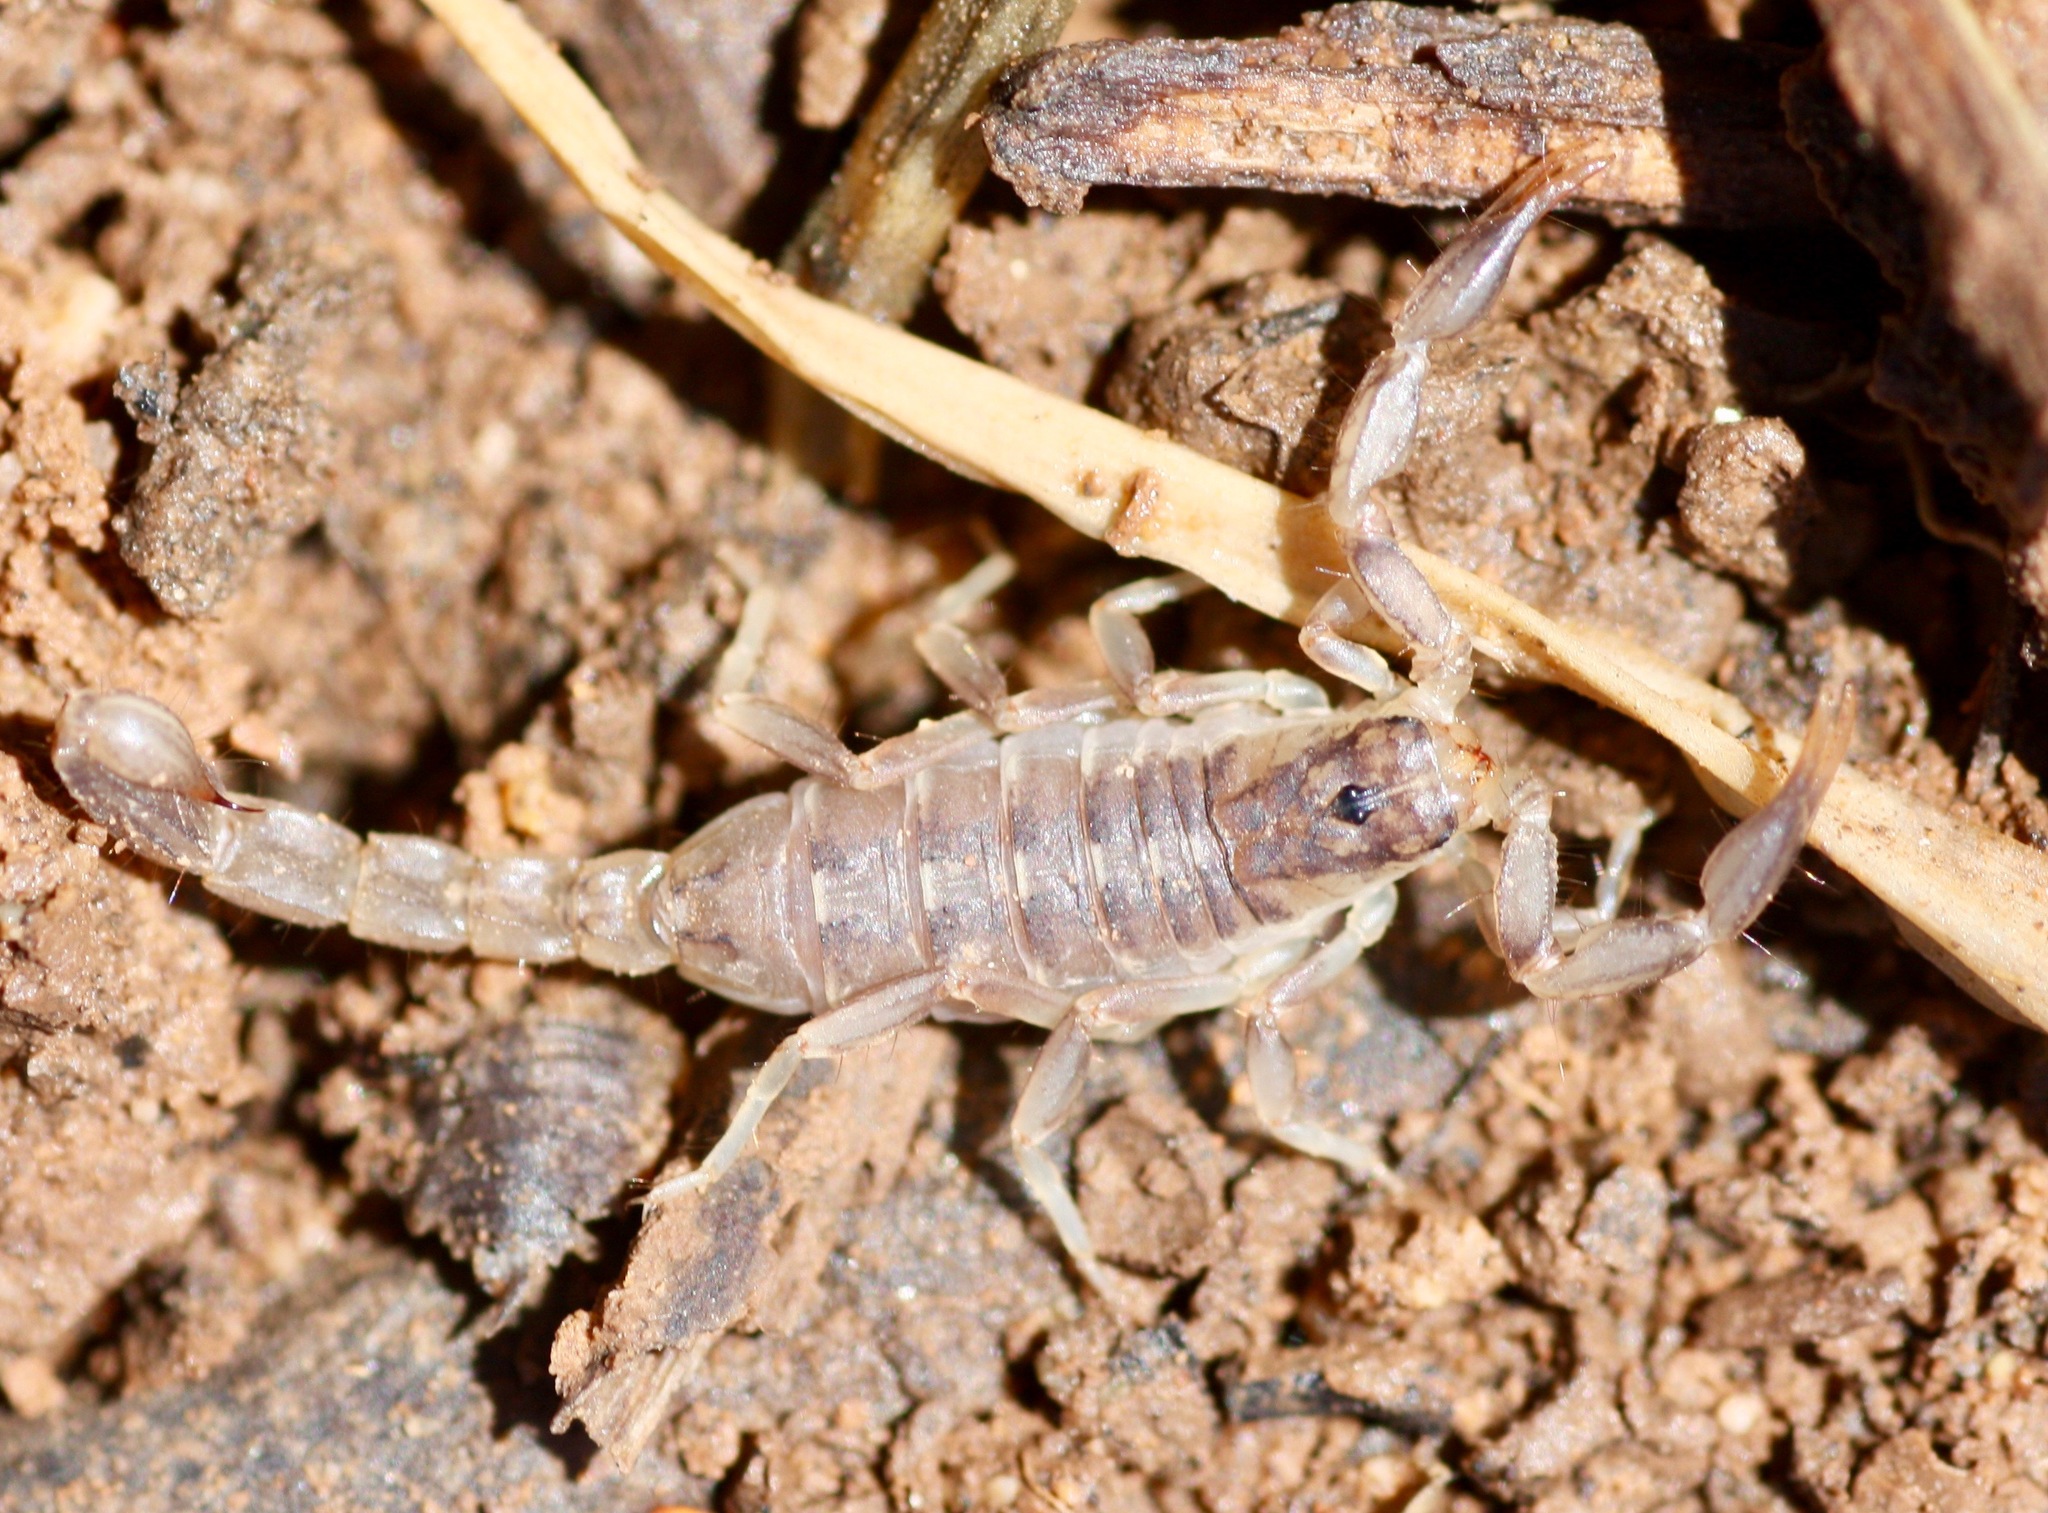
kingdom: Animalia
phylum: Arthropoda
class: Arachnida
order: Scorpiones
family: Vaejovidae
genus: Chihuahuanus
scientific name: Chihuahuanus crassimanus
